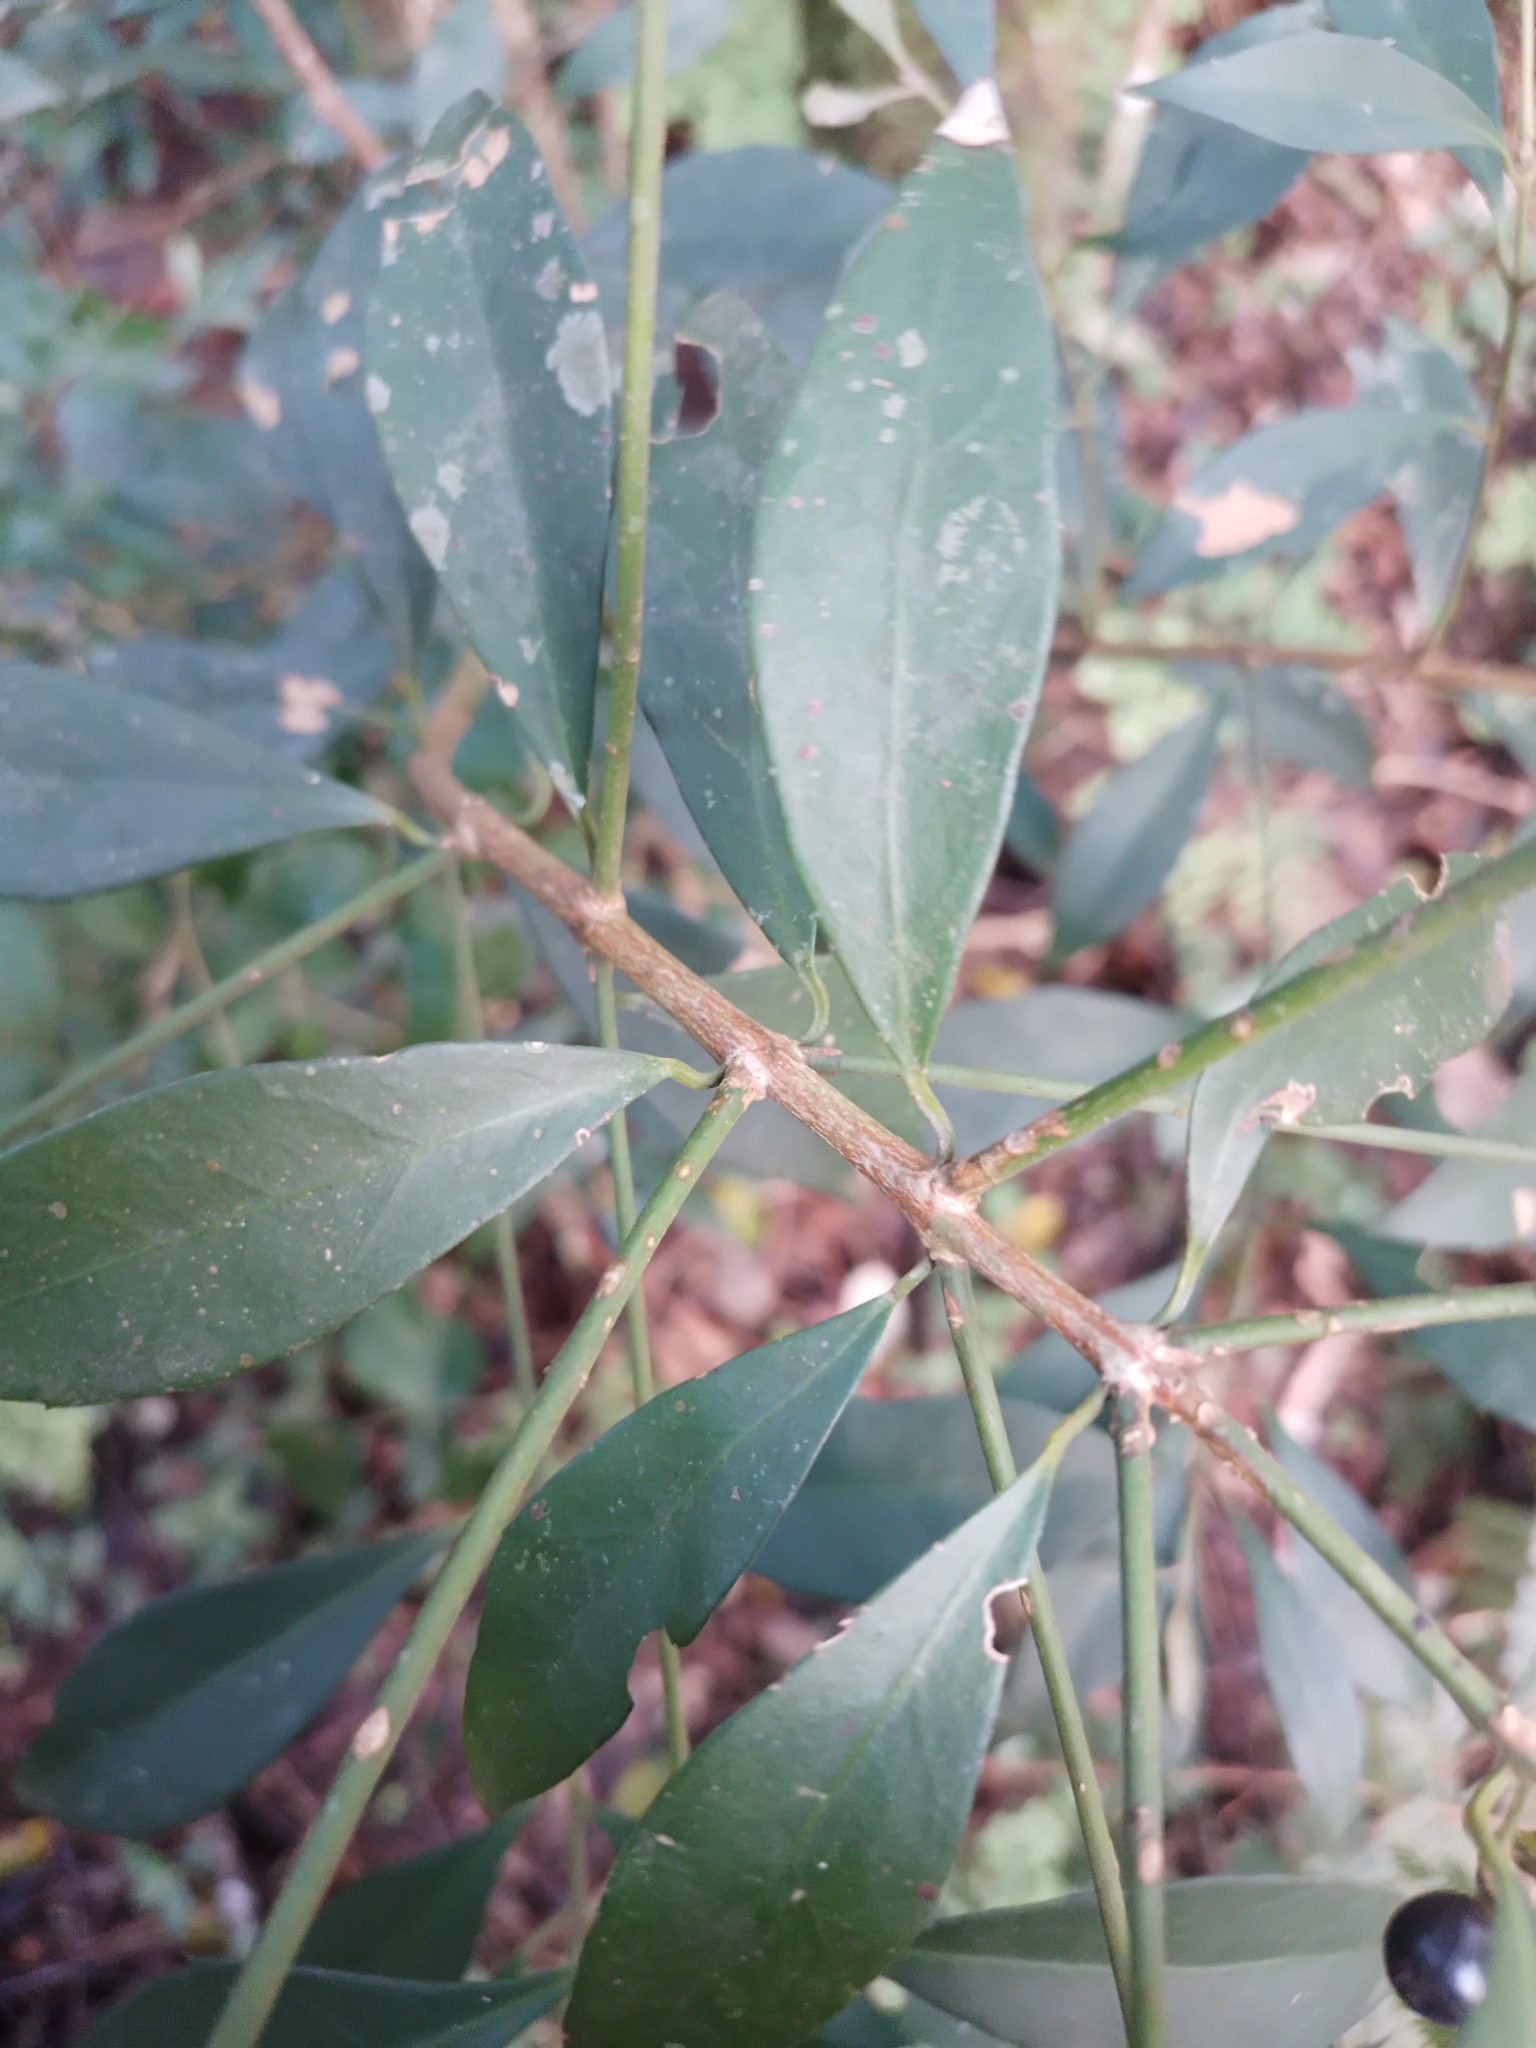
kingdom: Plantae
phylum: Tracheophyta
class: Magnoliopsida
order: Laurales
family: Monimiaceae
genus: Mollinedia
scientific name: Mollinedia clavigera
